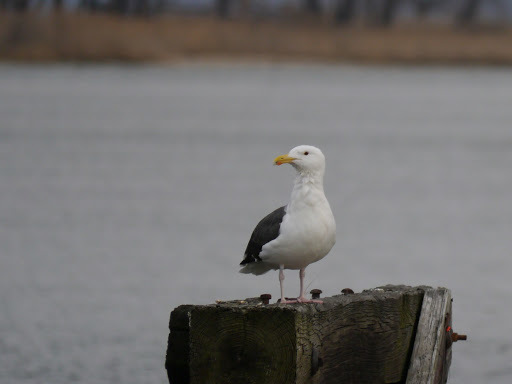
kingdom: Animalia
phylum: Chordata
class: Aves
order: Charadriiformes
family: Laridae
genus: Larus
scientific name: Larus marinus
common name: Great black-backed gull
